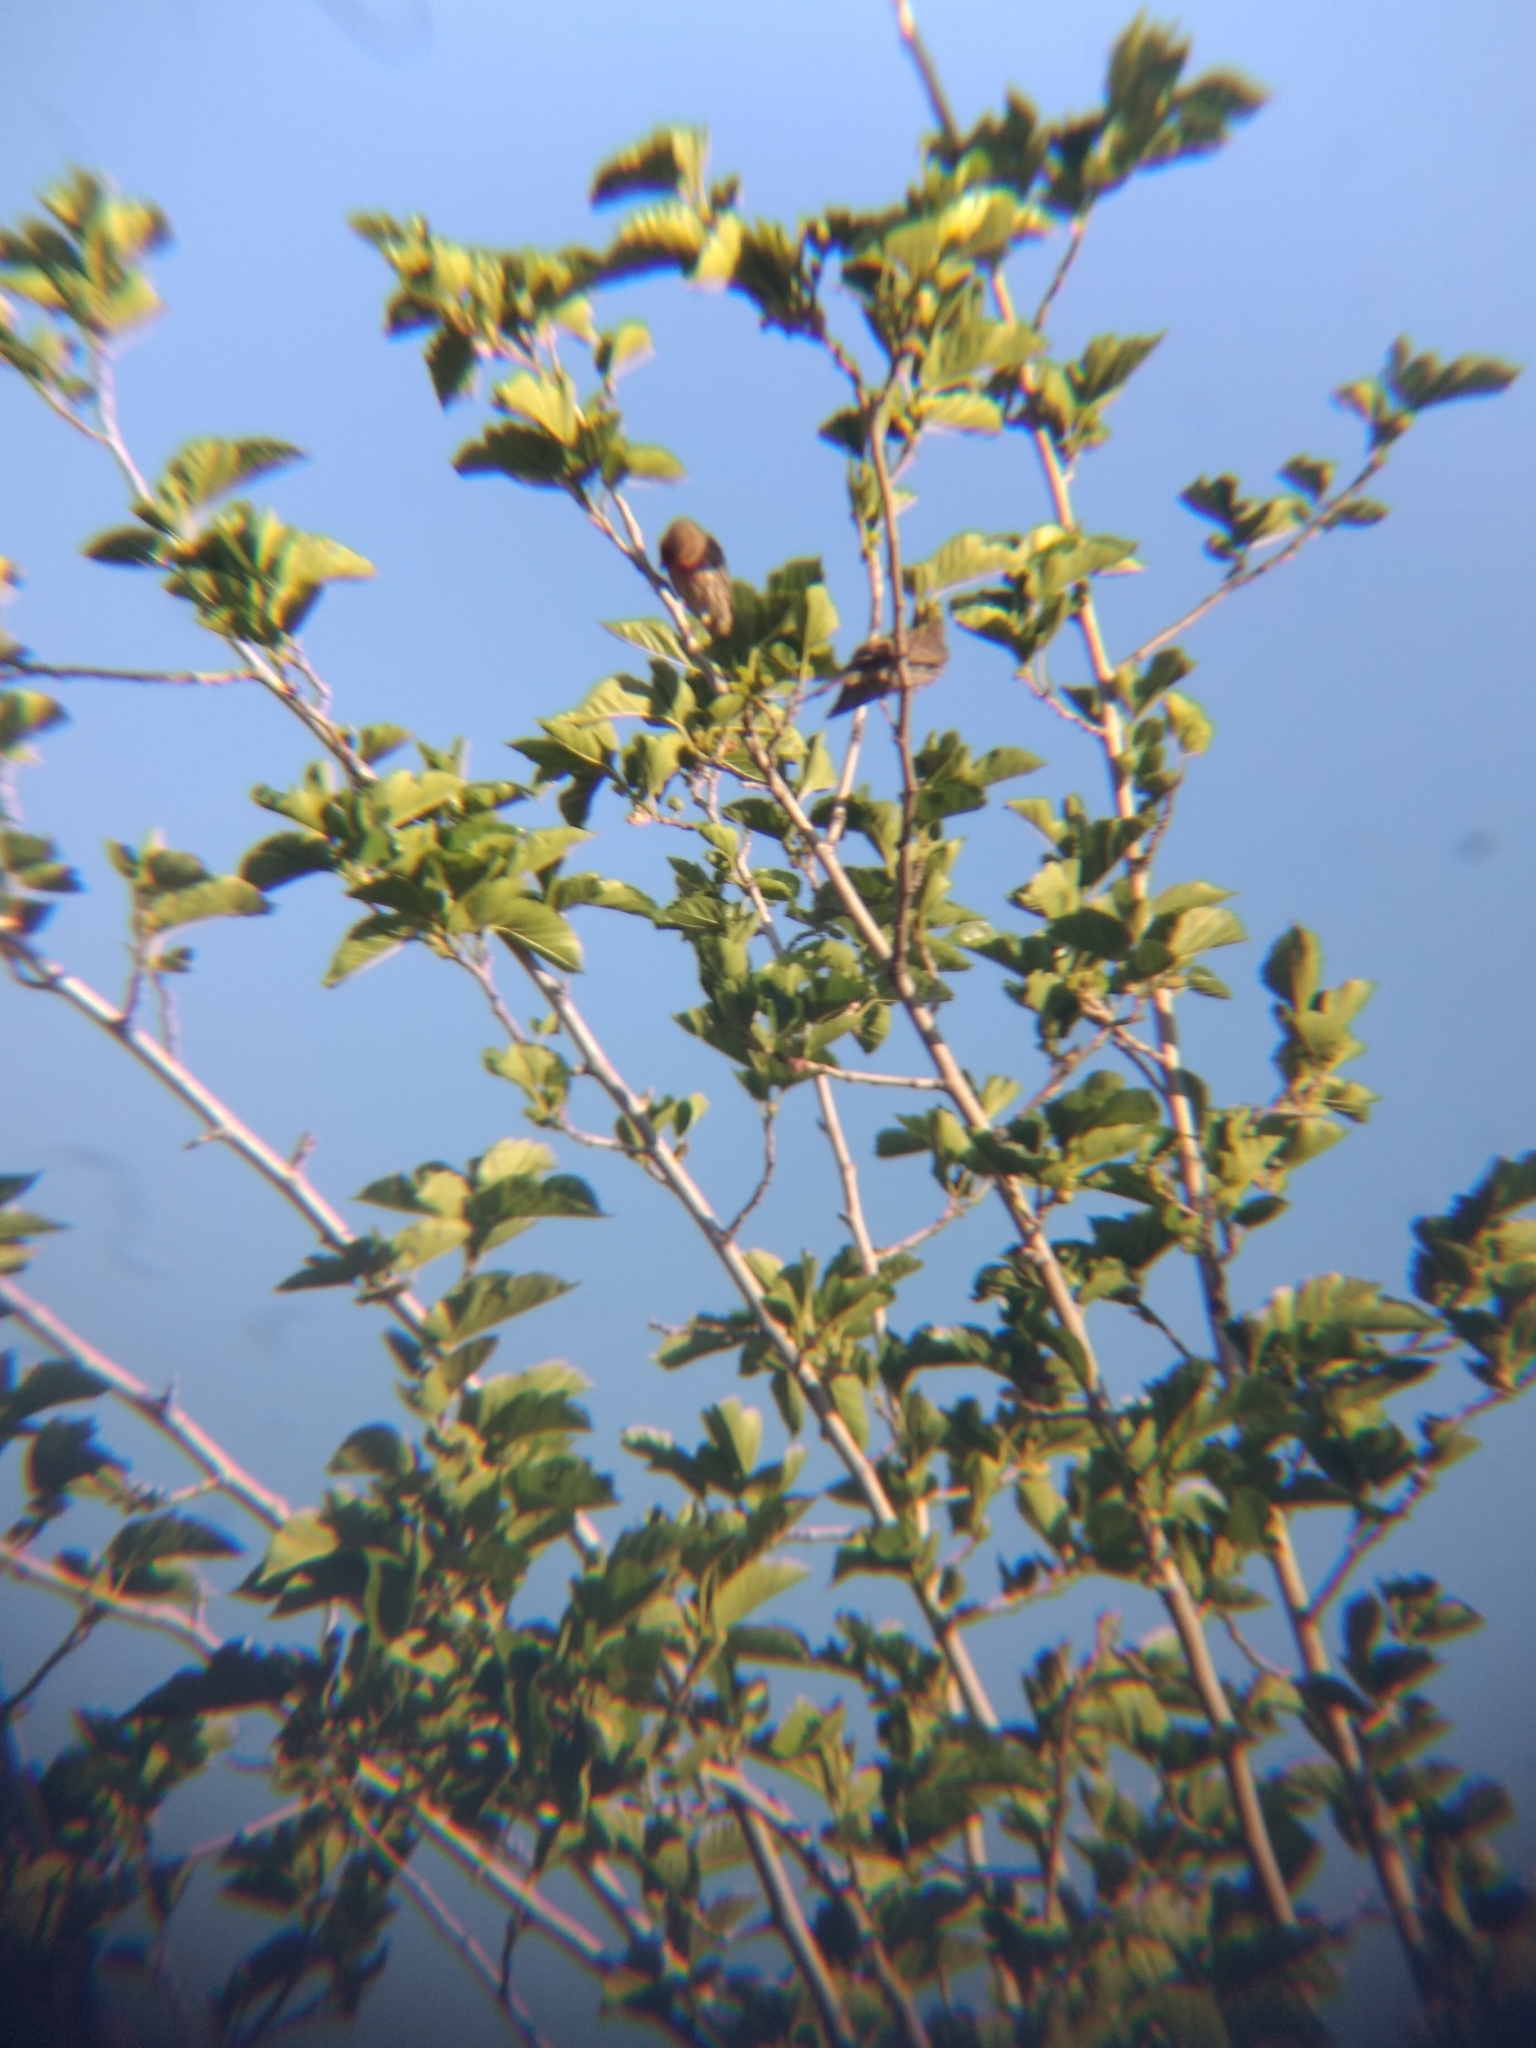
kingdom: Animalia
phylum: Chordata
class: Aves
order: Passeriformes
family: Fringillidae
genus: Haemorhous
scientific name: Haemorhous mexicanus
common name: House finch
